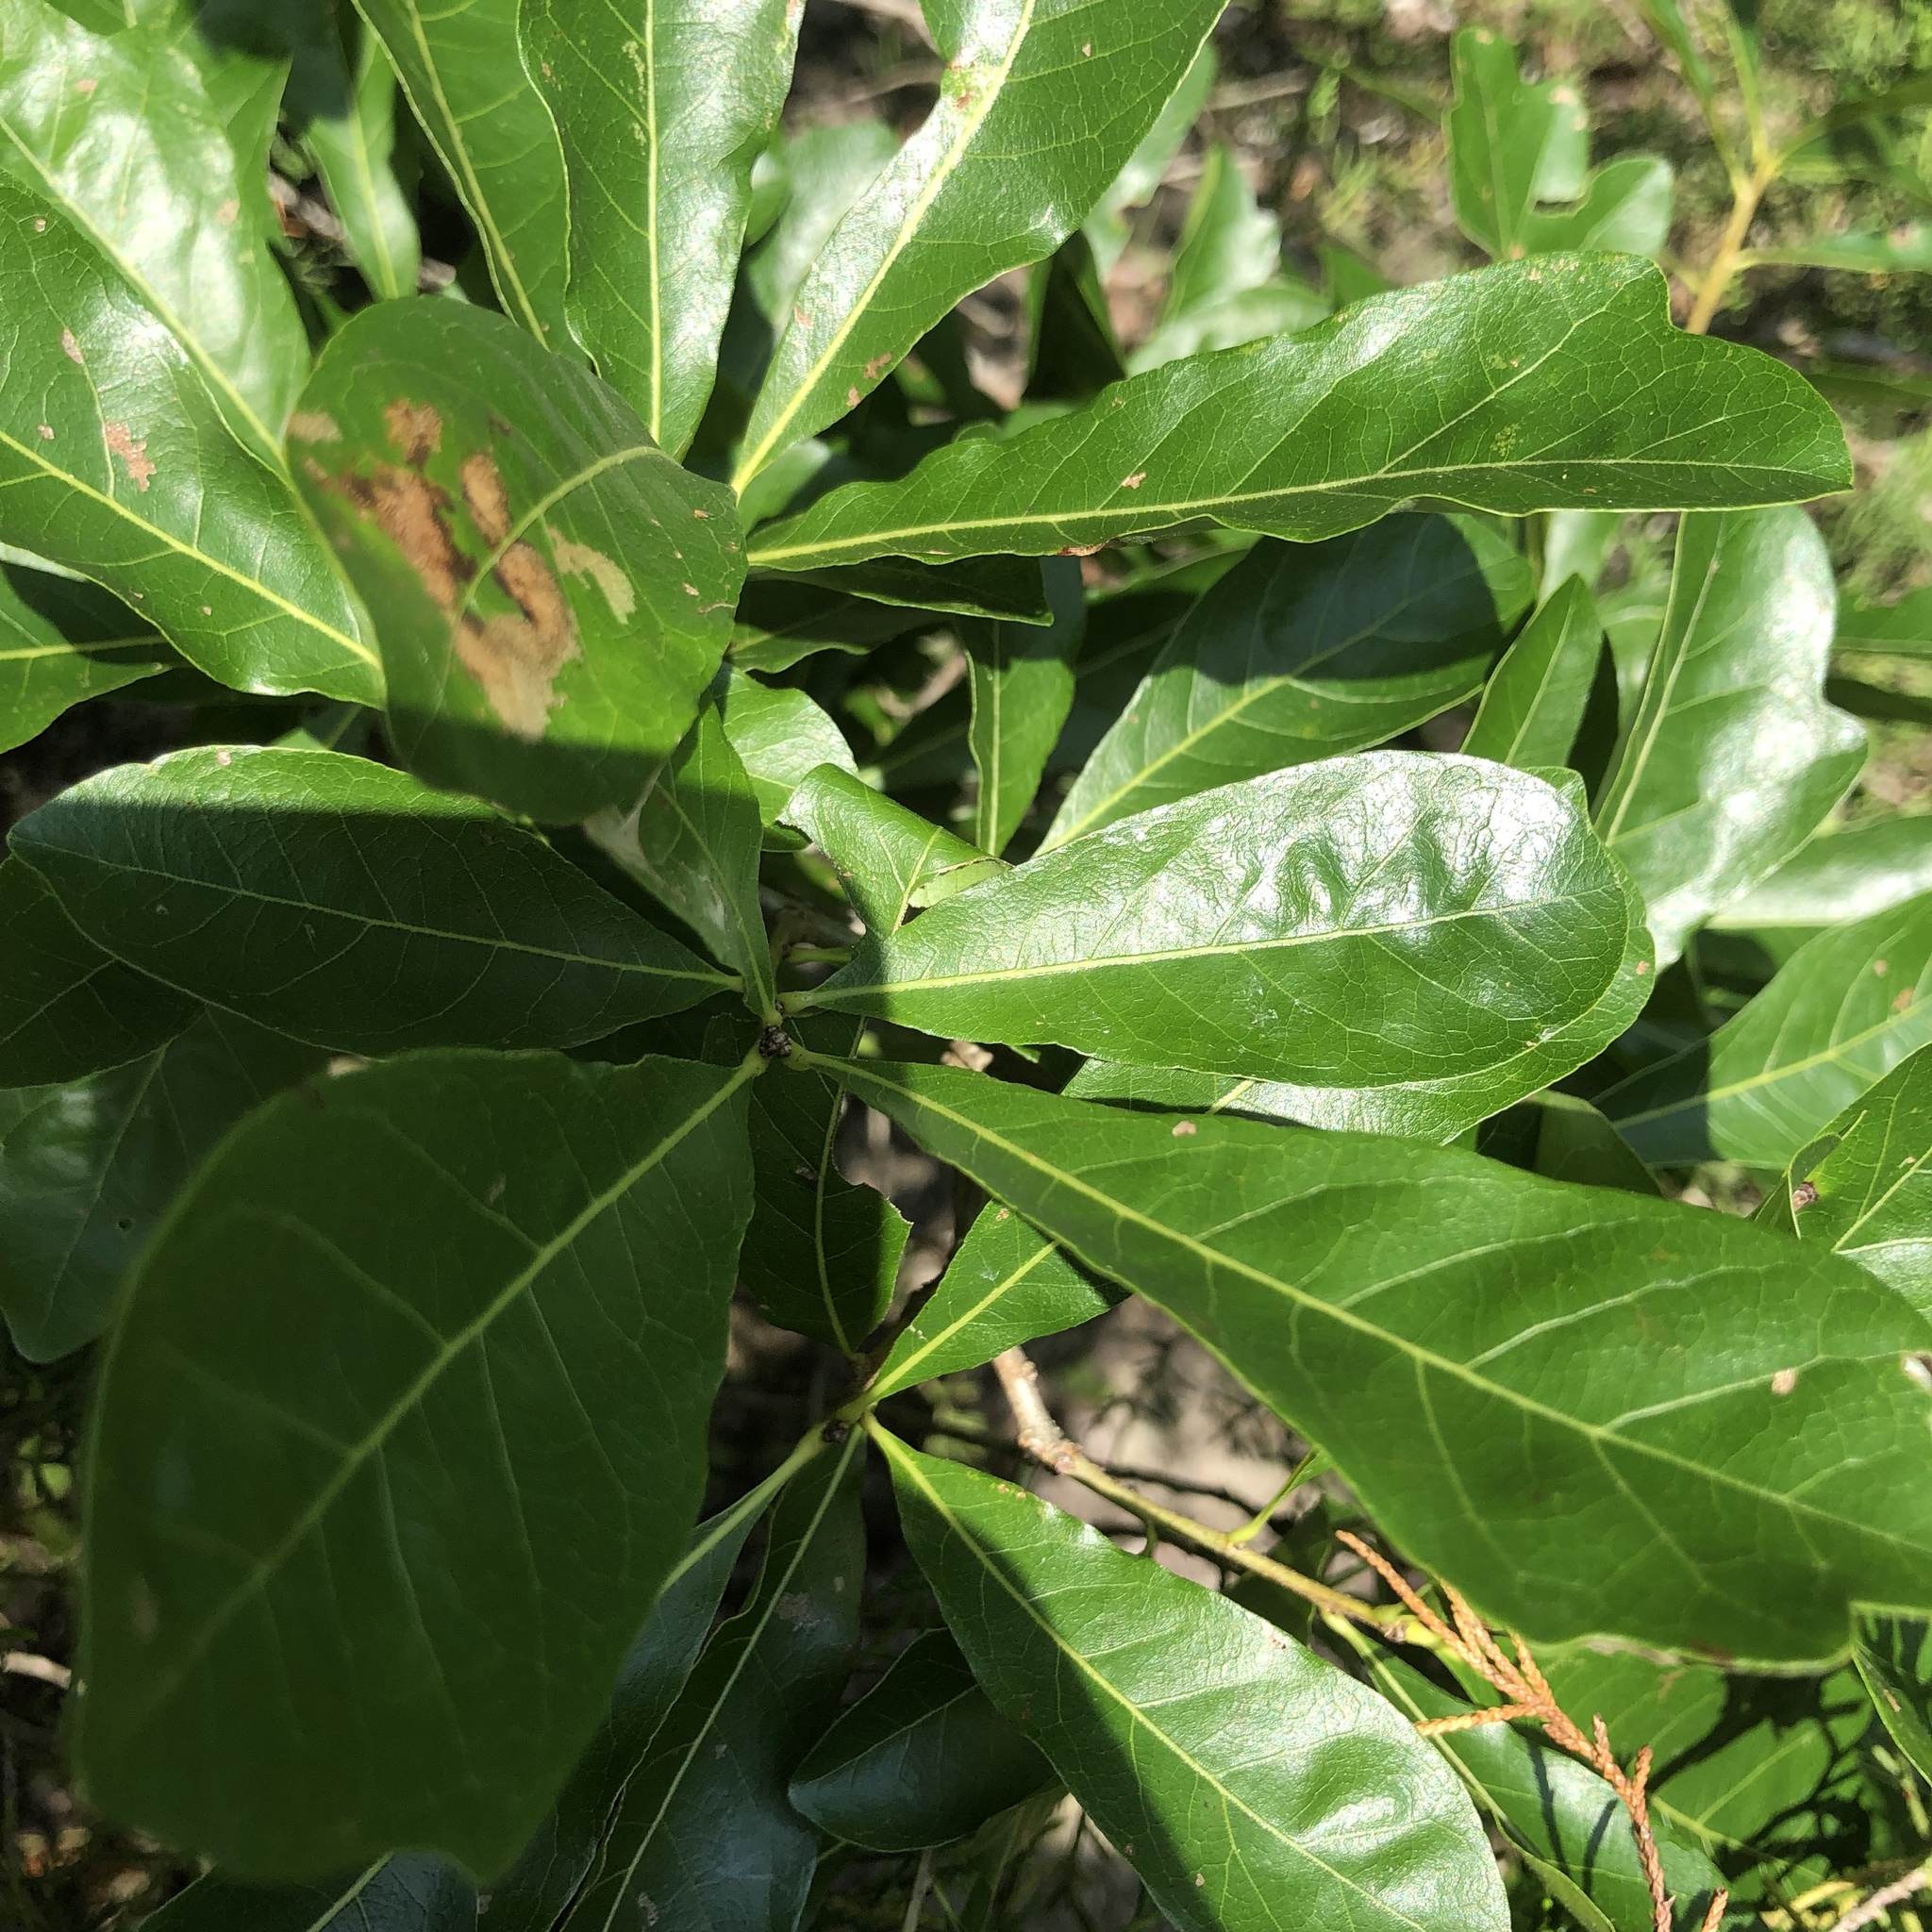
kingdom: Plantae
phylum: Tracheophyta
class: Magnoliopsida
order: Fagales
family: Fagaceae
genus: Quercus
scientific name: Quercus sinuata
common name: Durand oak
